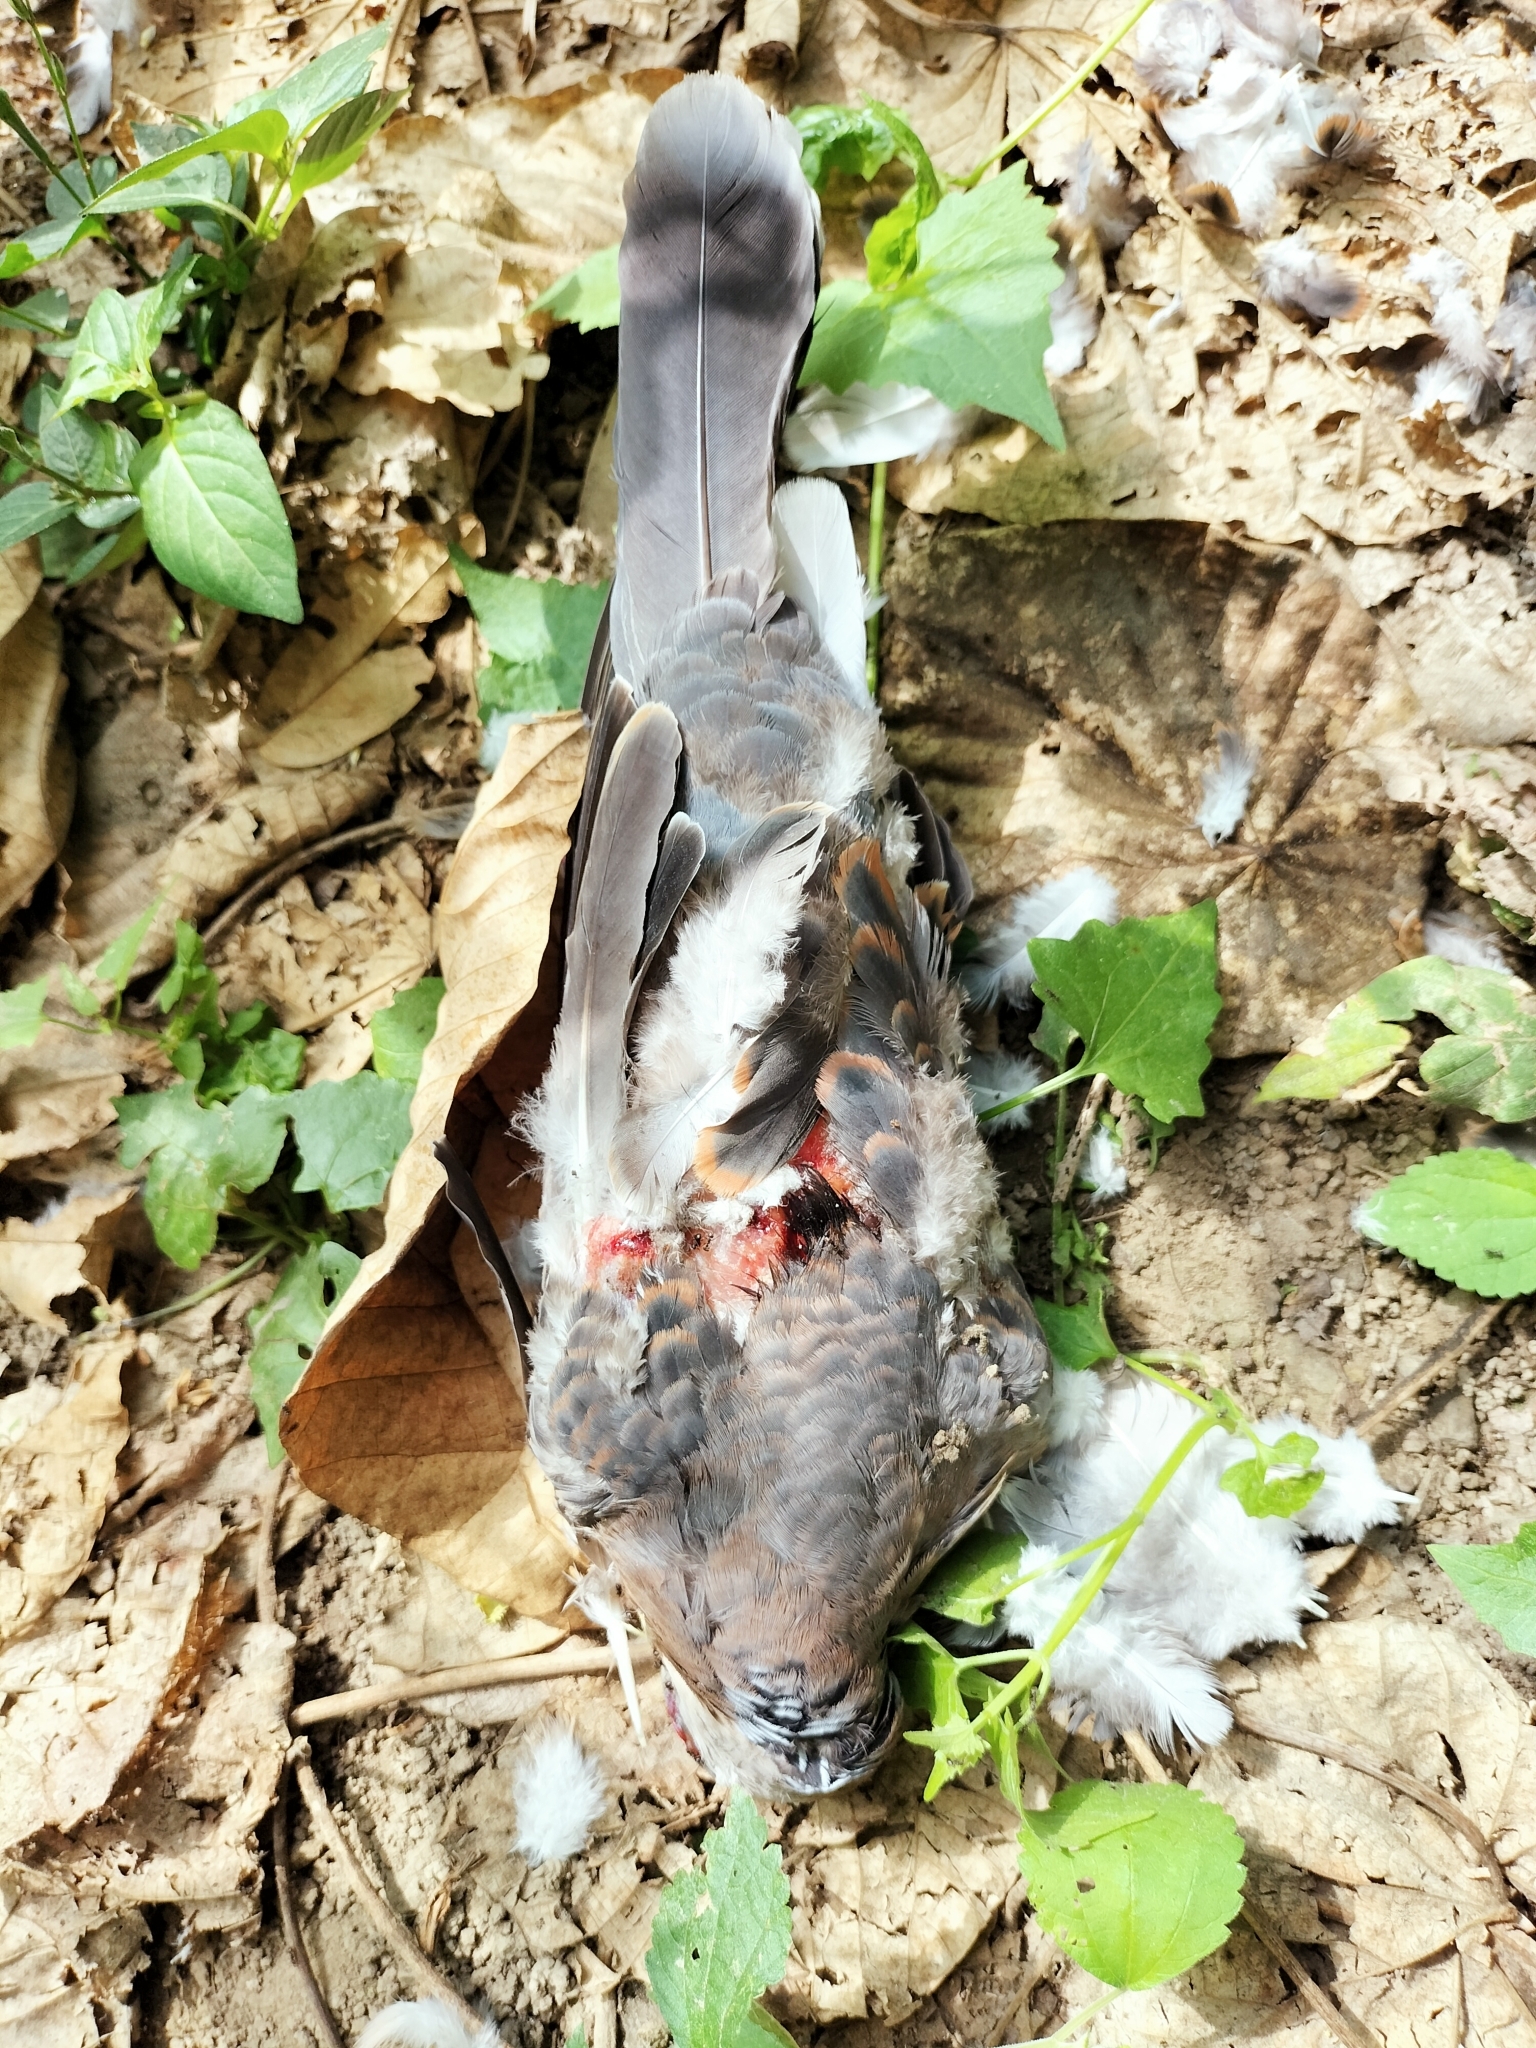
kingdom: Animalia
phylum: Chordata
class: Aves
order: Columbiformes
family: Columbidae
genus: Streptopelia
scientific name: Streptopelia orientalis
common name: Oriental turtle dove
